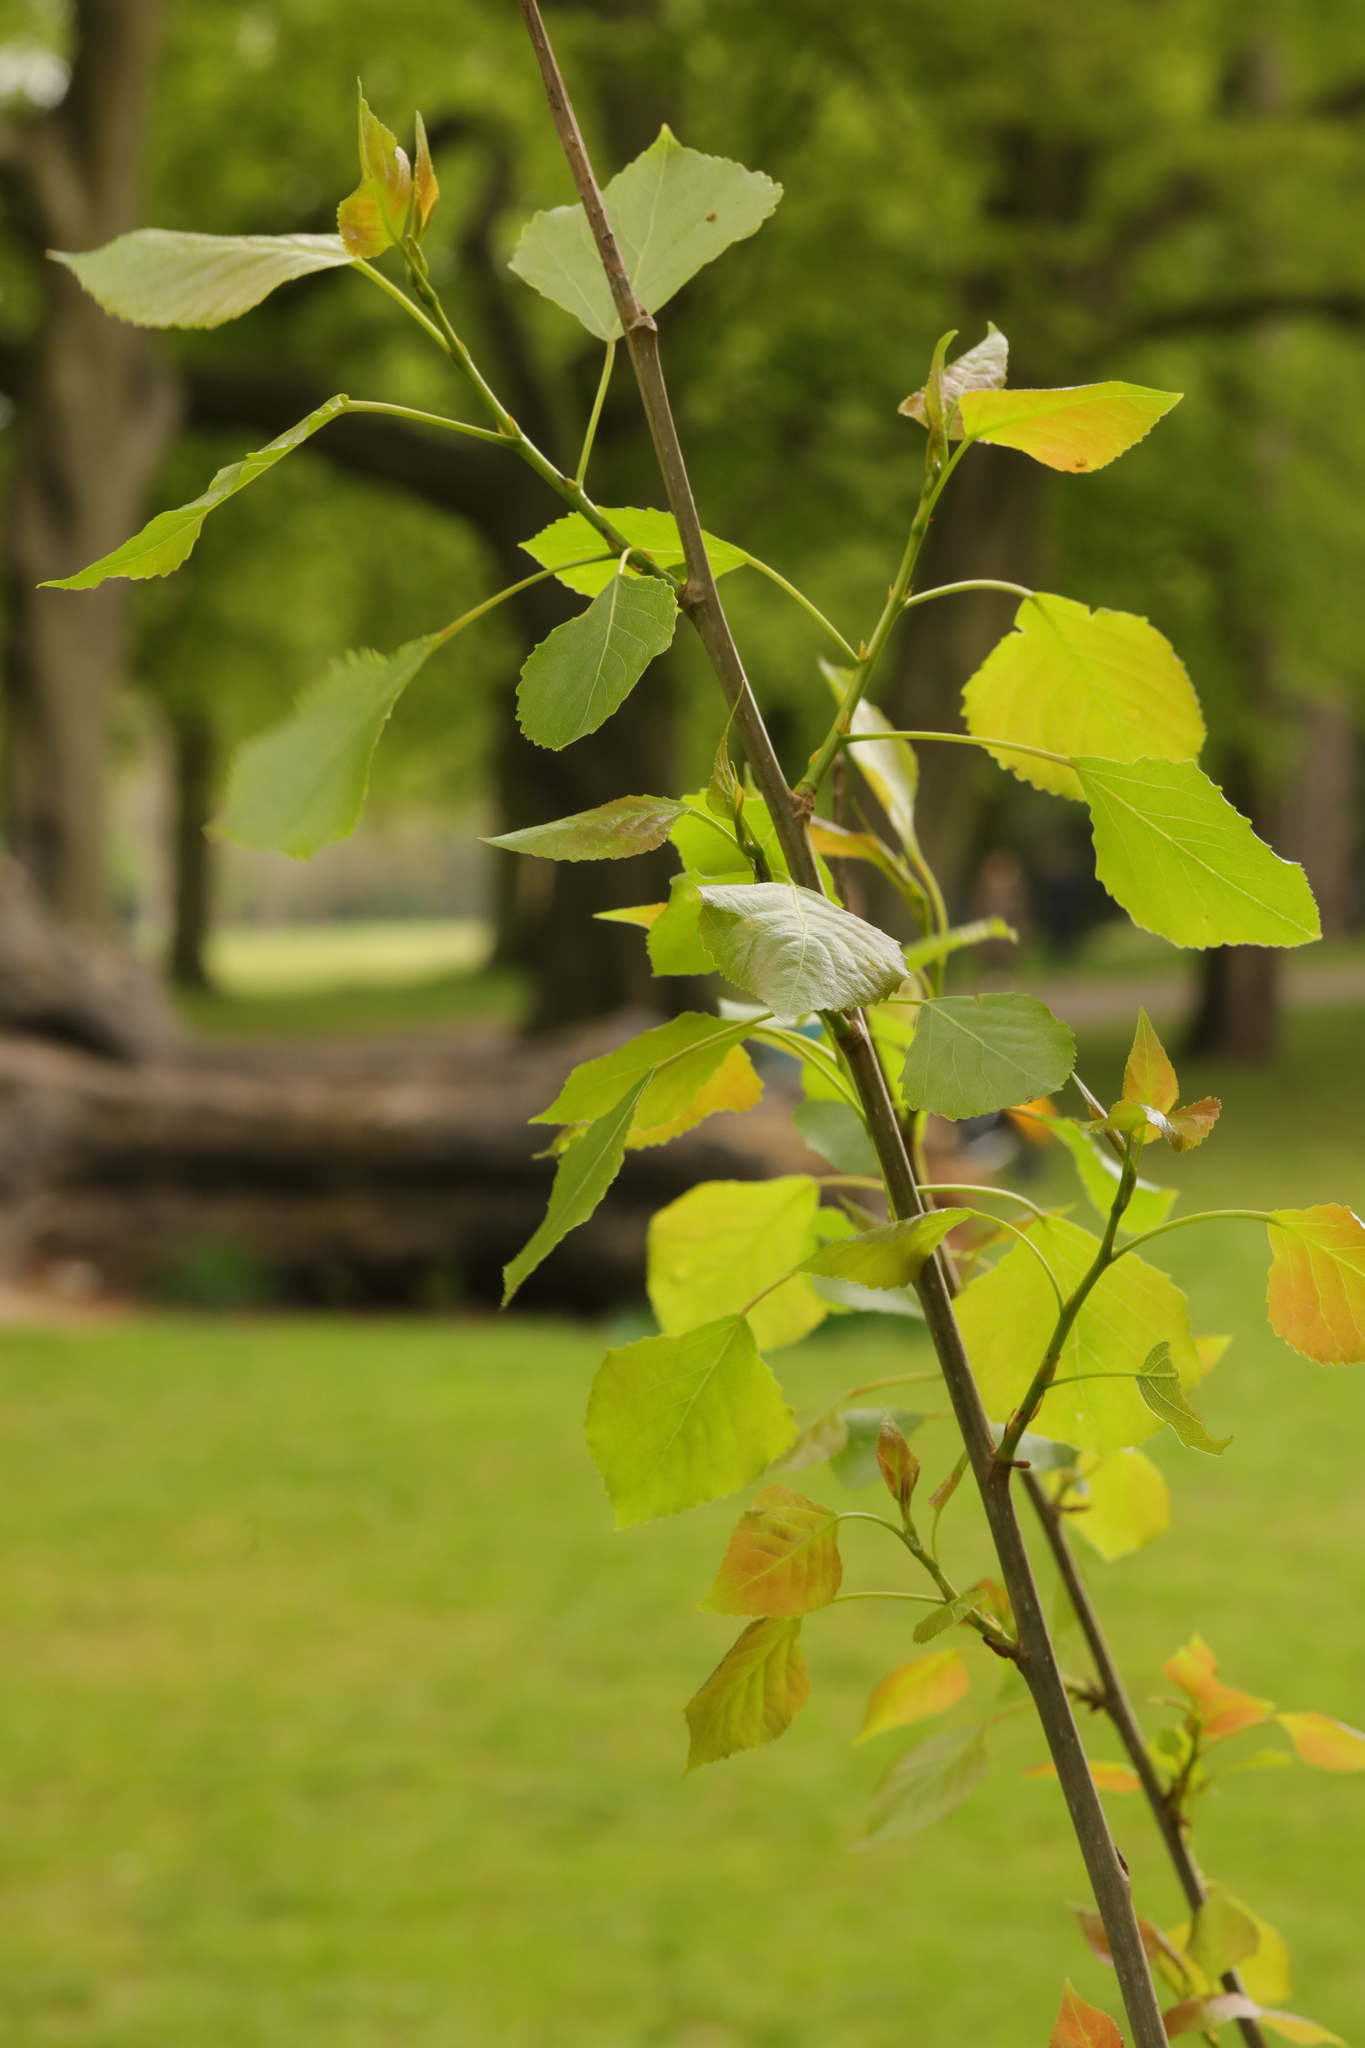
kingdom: Plantae
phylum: Tracheophyta
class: Magnoliopsida
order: Malpighiales
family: Salicaceae
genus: Populus
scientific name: Populus tremula
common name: European aspen
